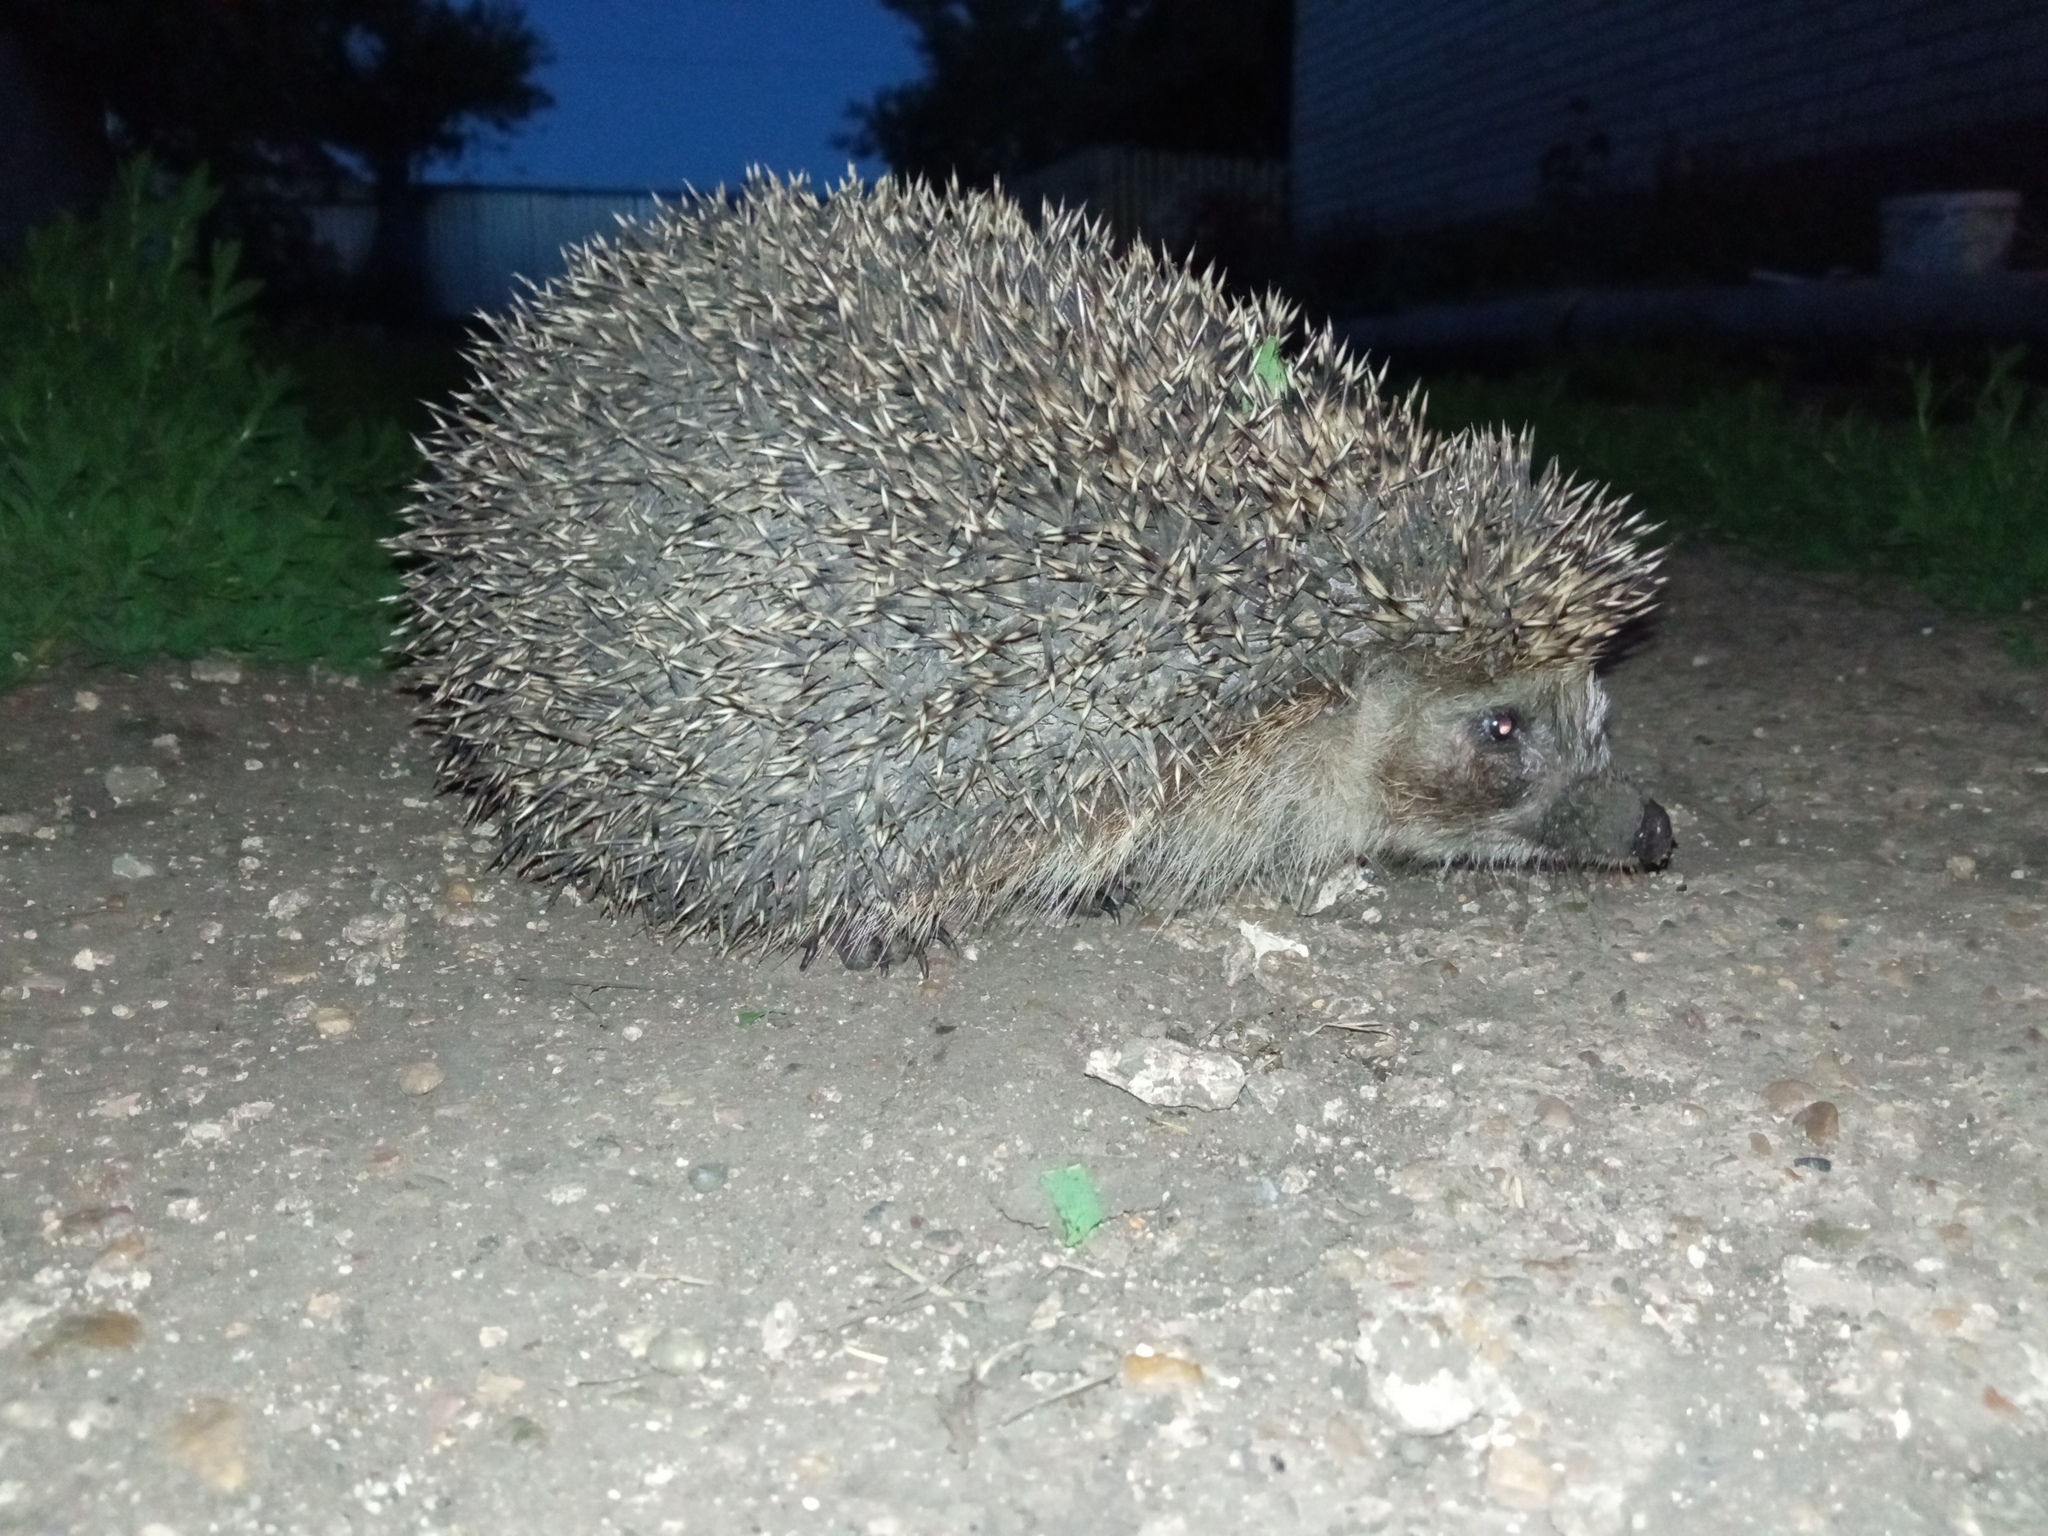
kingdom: Animalia
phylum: Chordata
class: Mammalia
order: Erinaceomorpha
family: Erinaceidae
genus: Erinaceus
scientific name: Erinaceus roumanicus
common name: Northern white-breasted hedgehog
